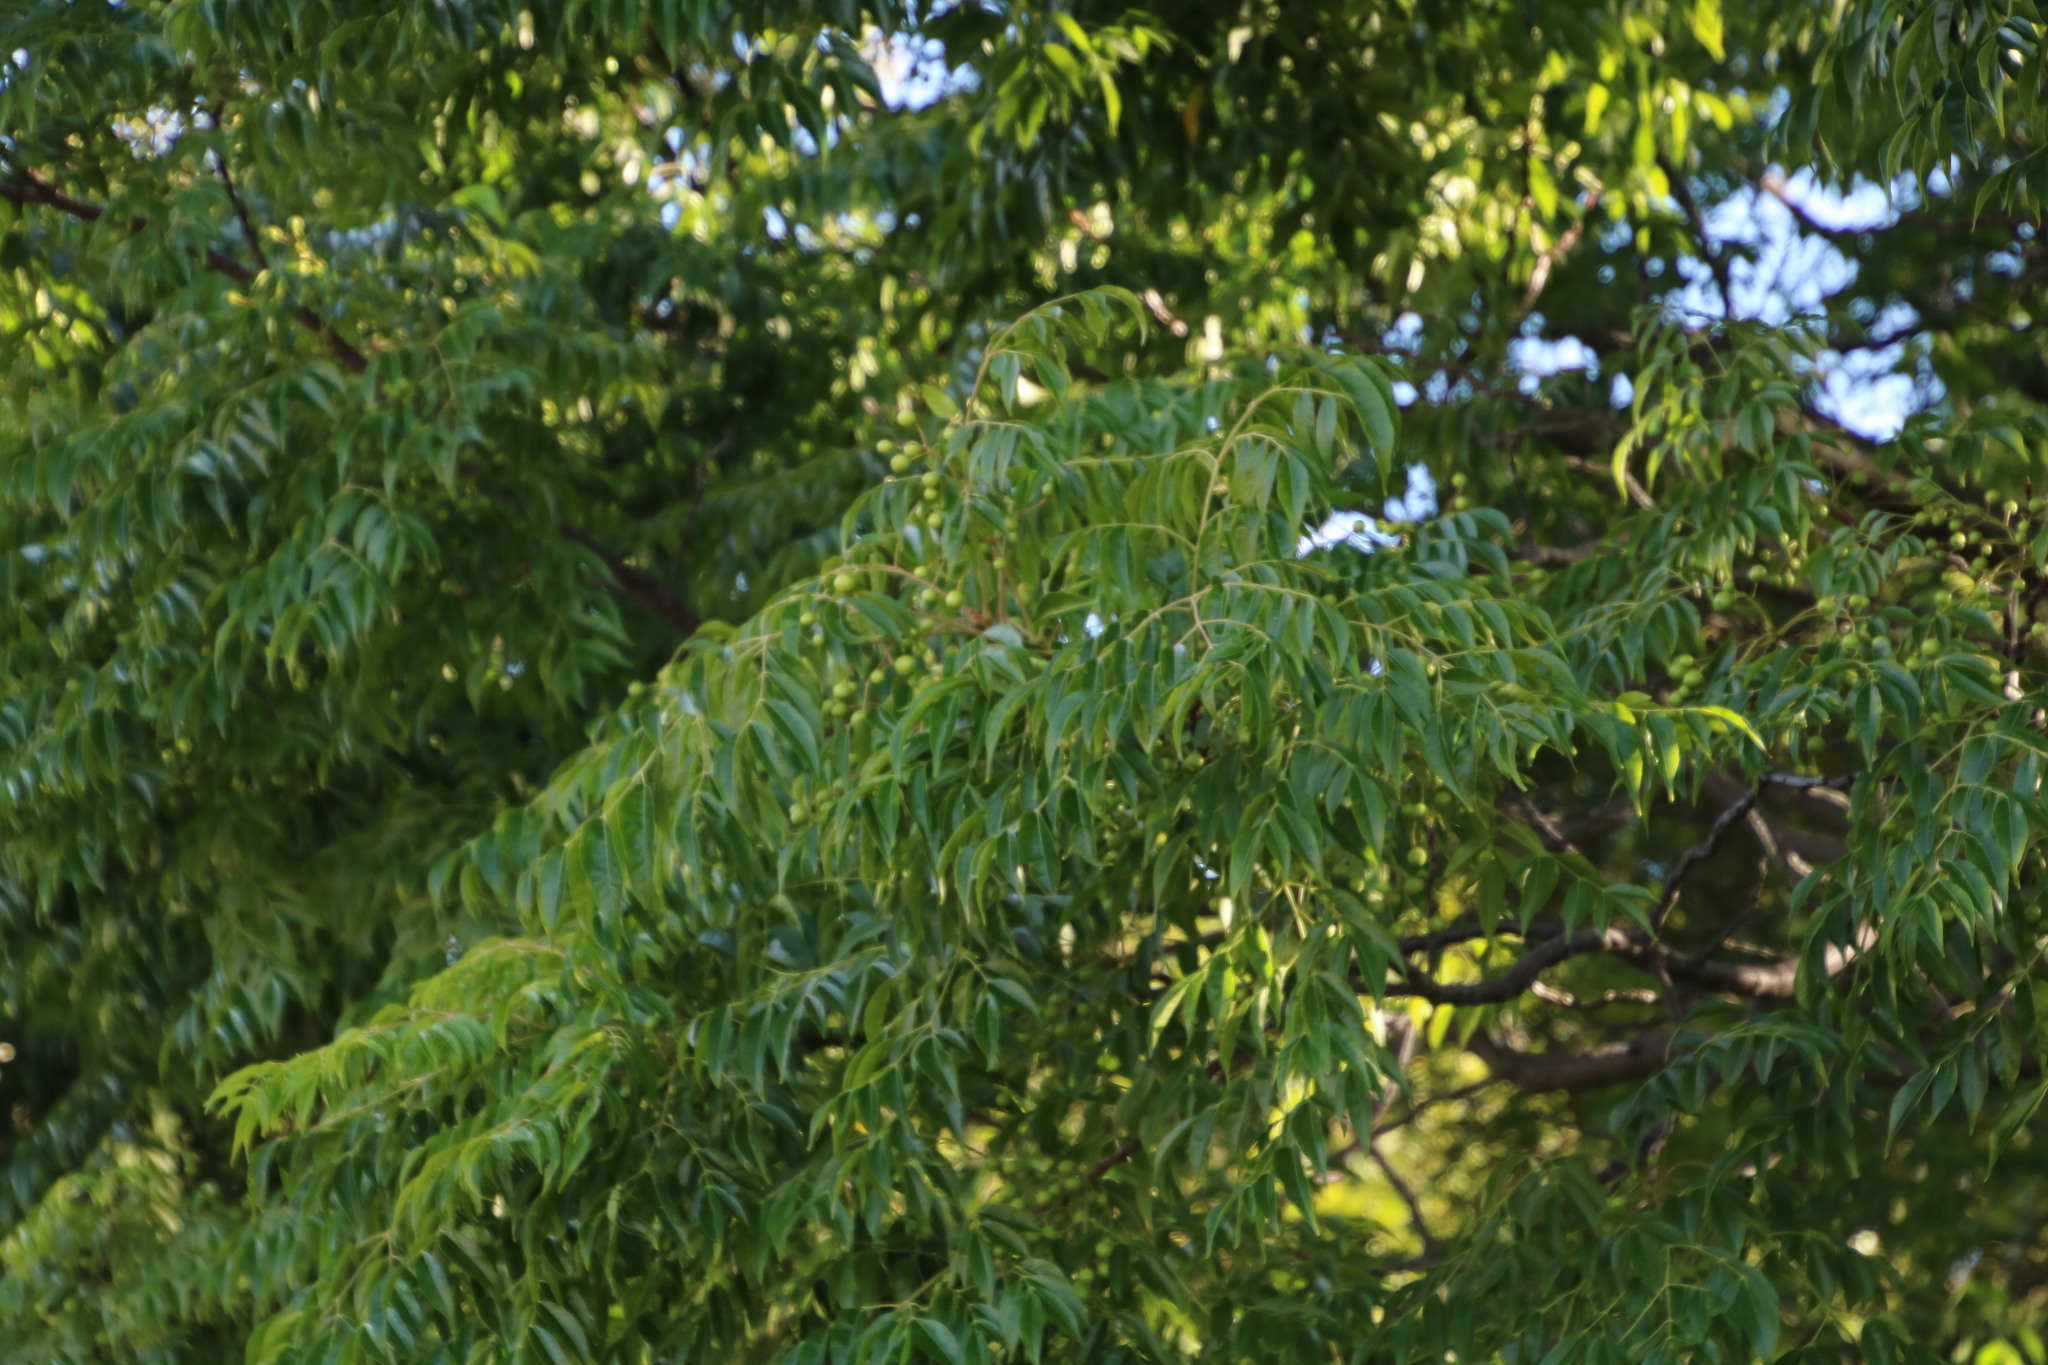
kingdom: Plantae
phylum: Tracheophyta
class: Magnoliopsida
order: Sapindales
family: Meliaceae
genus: Melia
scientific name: Melia azedarach
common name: Chinaberrytree
